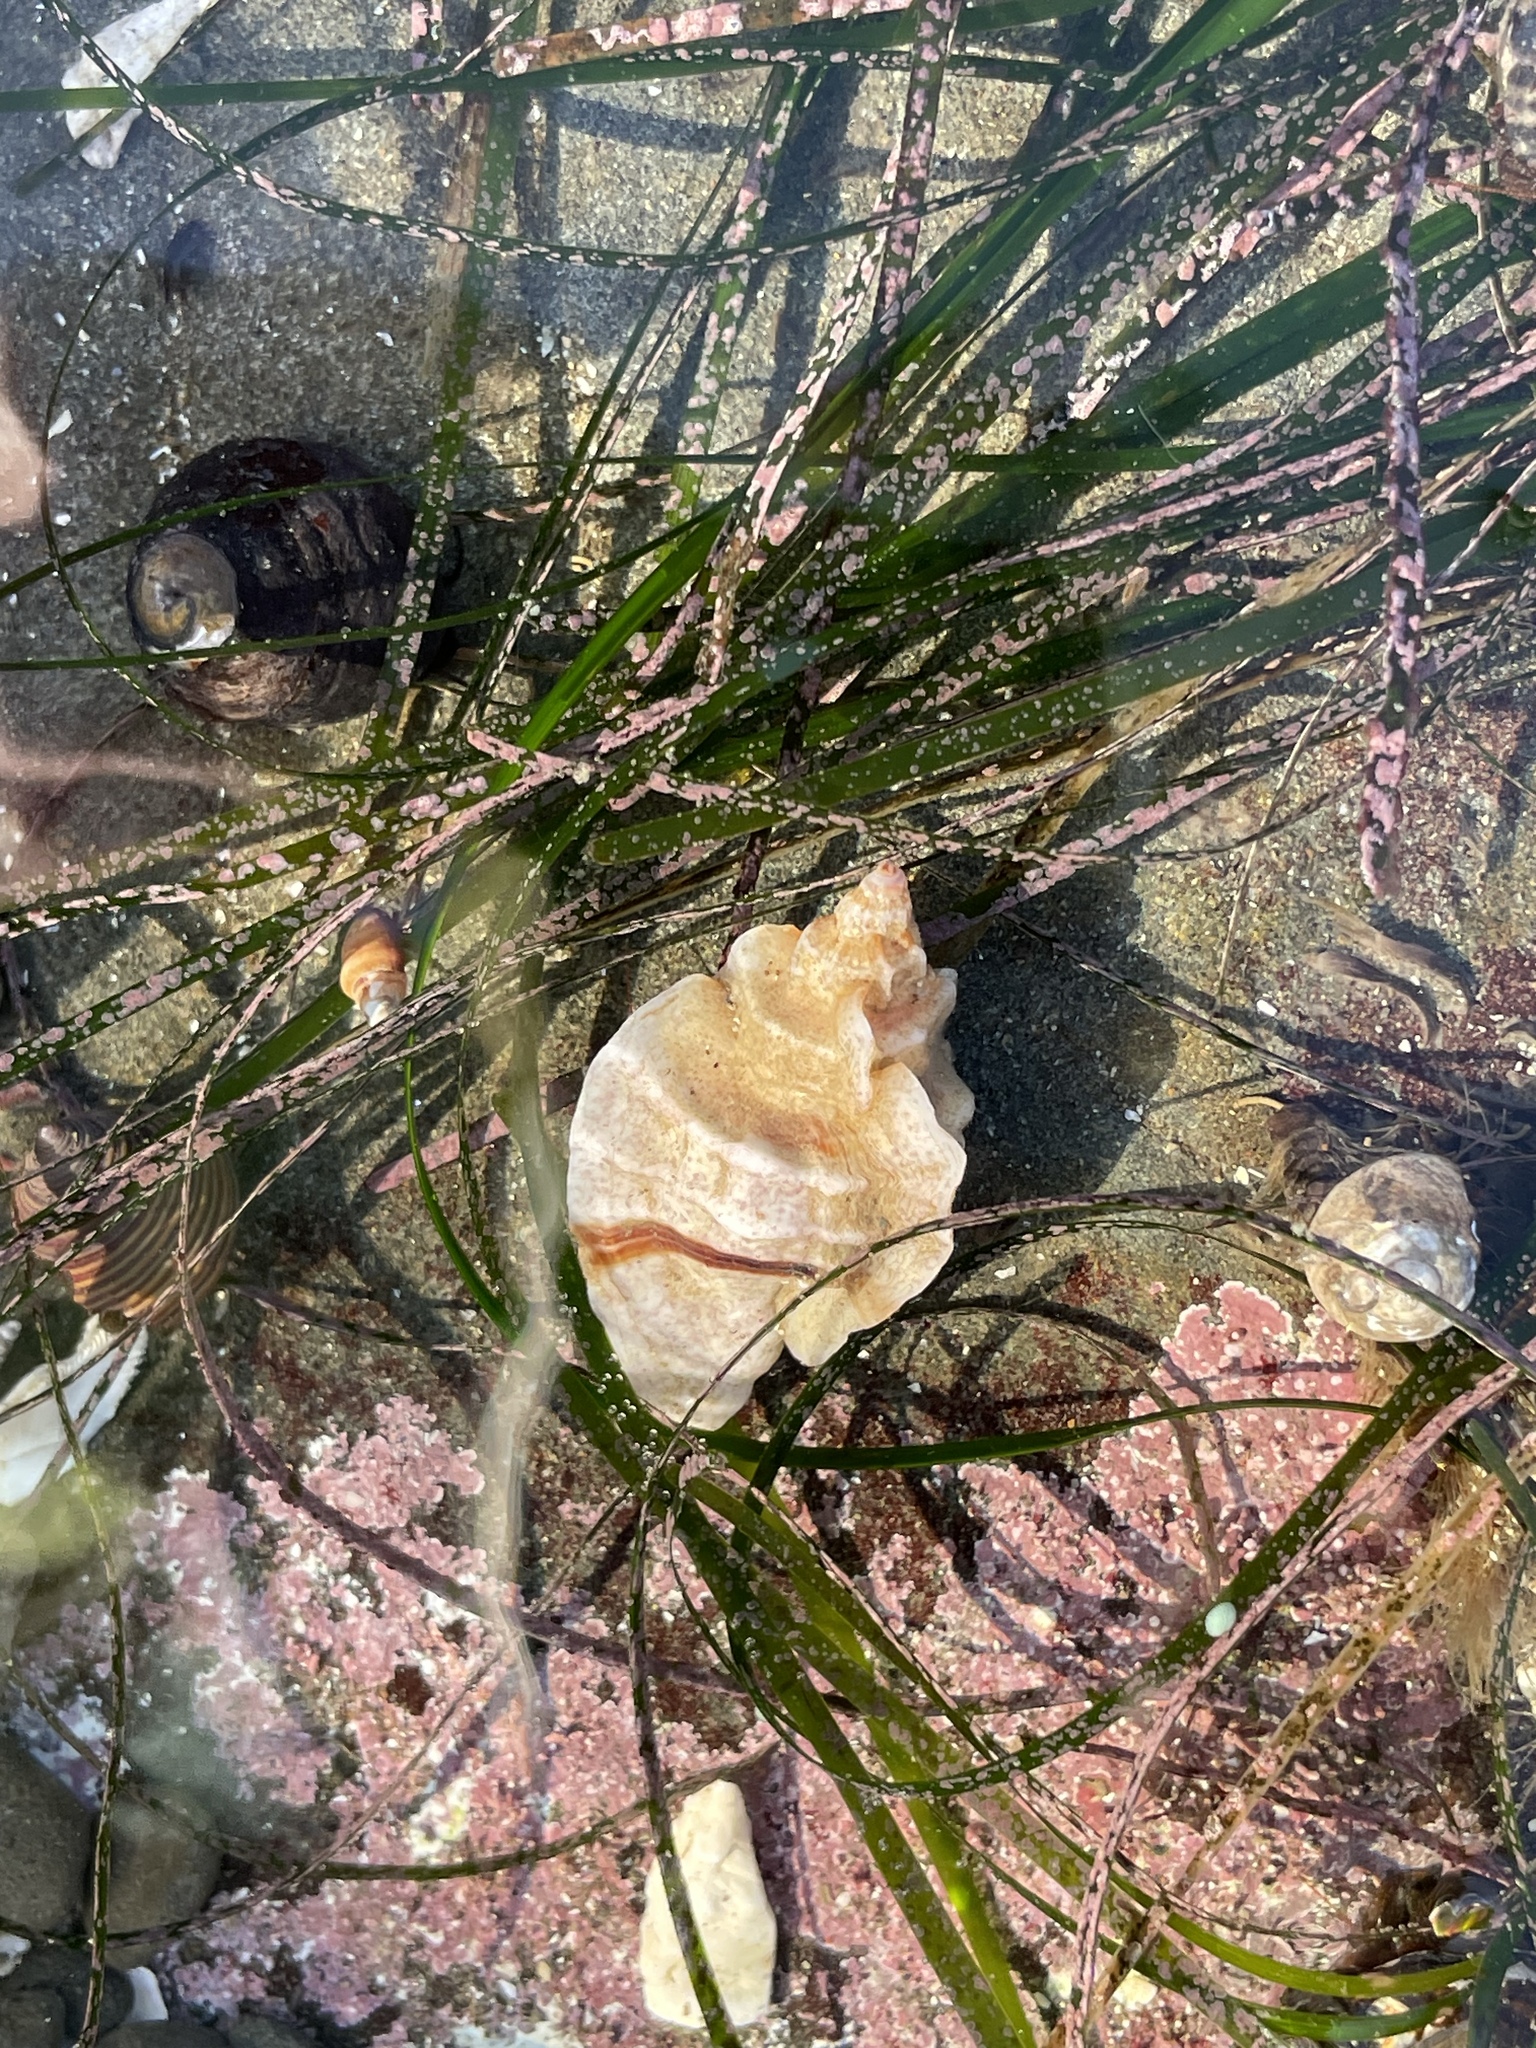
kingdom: Animalia
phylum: Mollusca
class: Gastropoda
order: Neogastropoda
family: Muricidae
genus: Ceratostoma
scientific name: Ceratostoma foliatum
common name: Foliate thorn purpura
